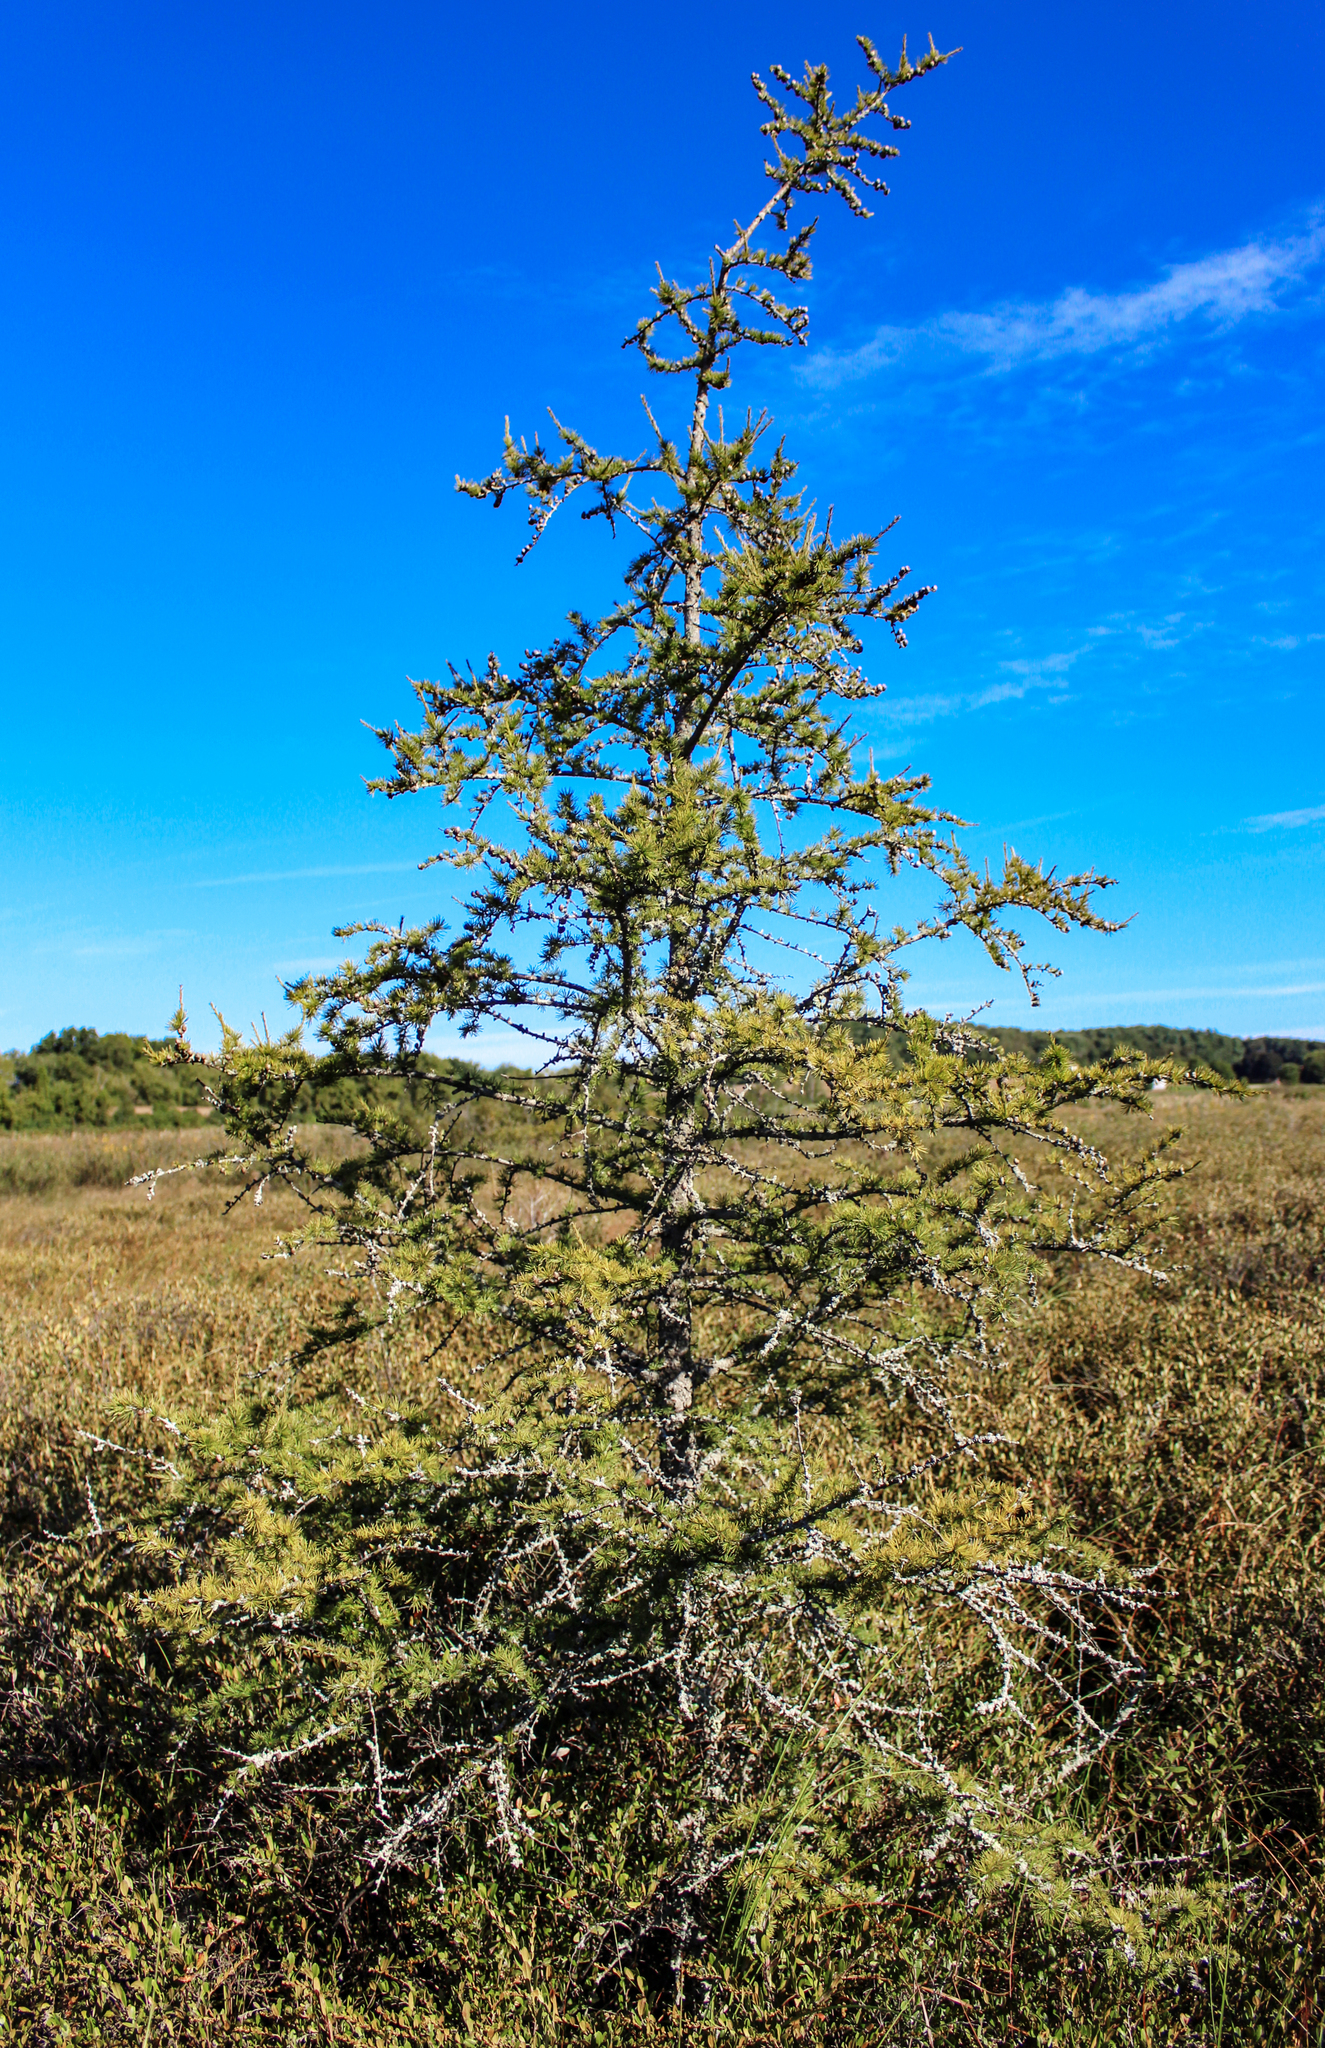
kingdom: Plantae
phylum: Tracheophyta
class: Pinopsida
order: Pinales
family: Pinaceae
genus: Larix
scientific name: Larix laricina
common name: American larch
